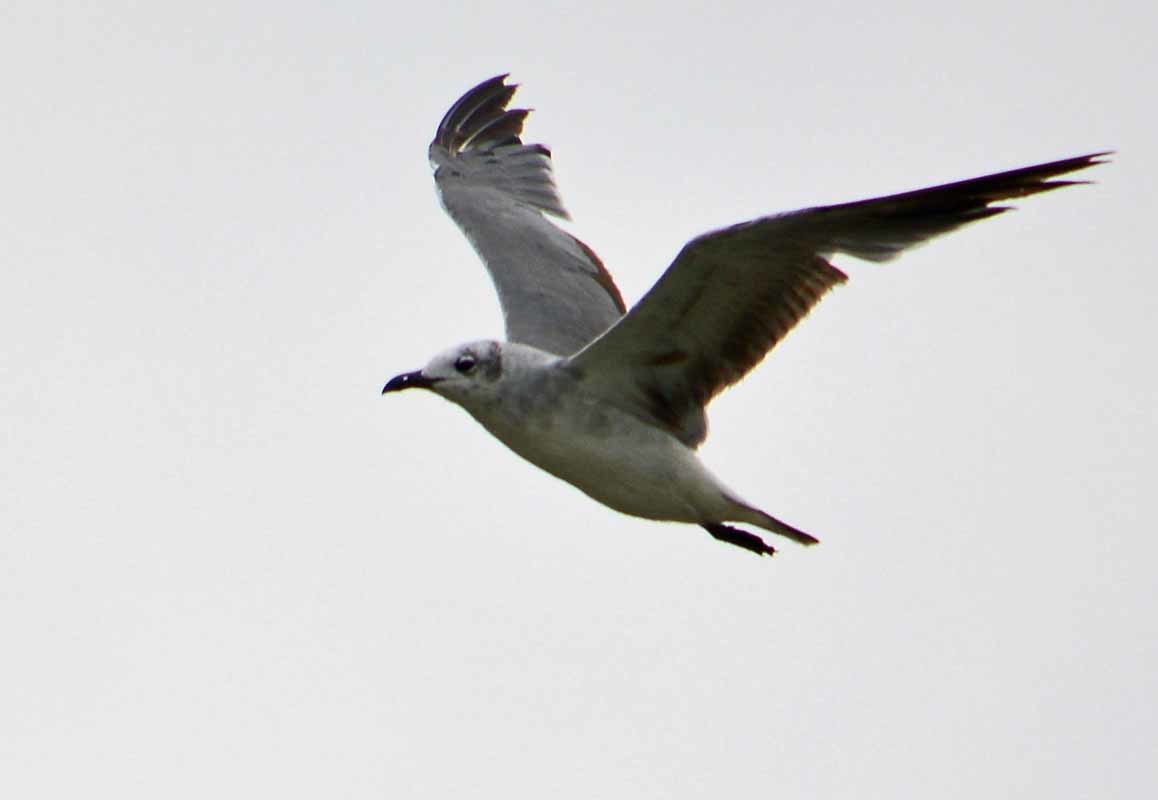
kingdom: Animalia
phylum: Chordata
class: Aves
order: Charadriiformes
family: Laridae
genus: Leucophaeus
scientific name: Leucophaeus atricilla
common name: Laughing gull
